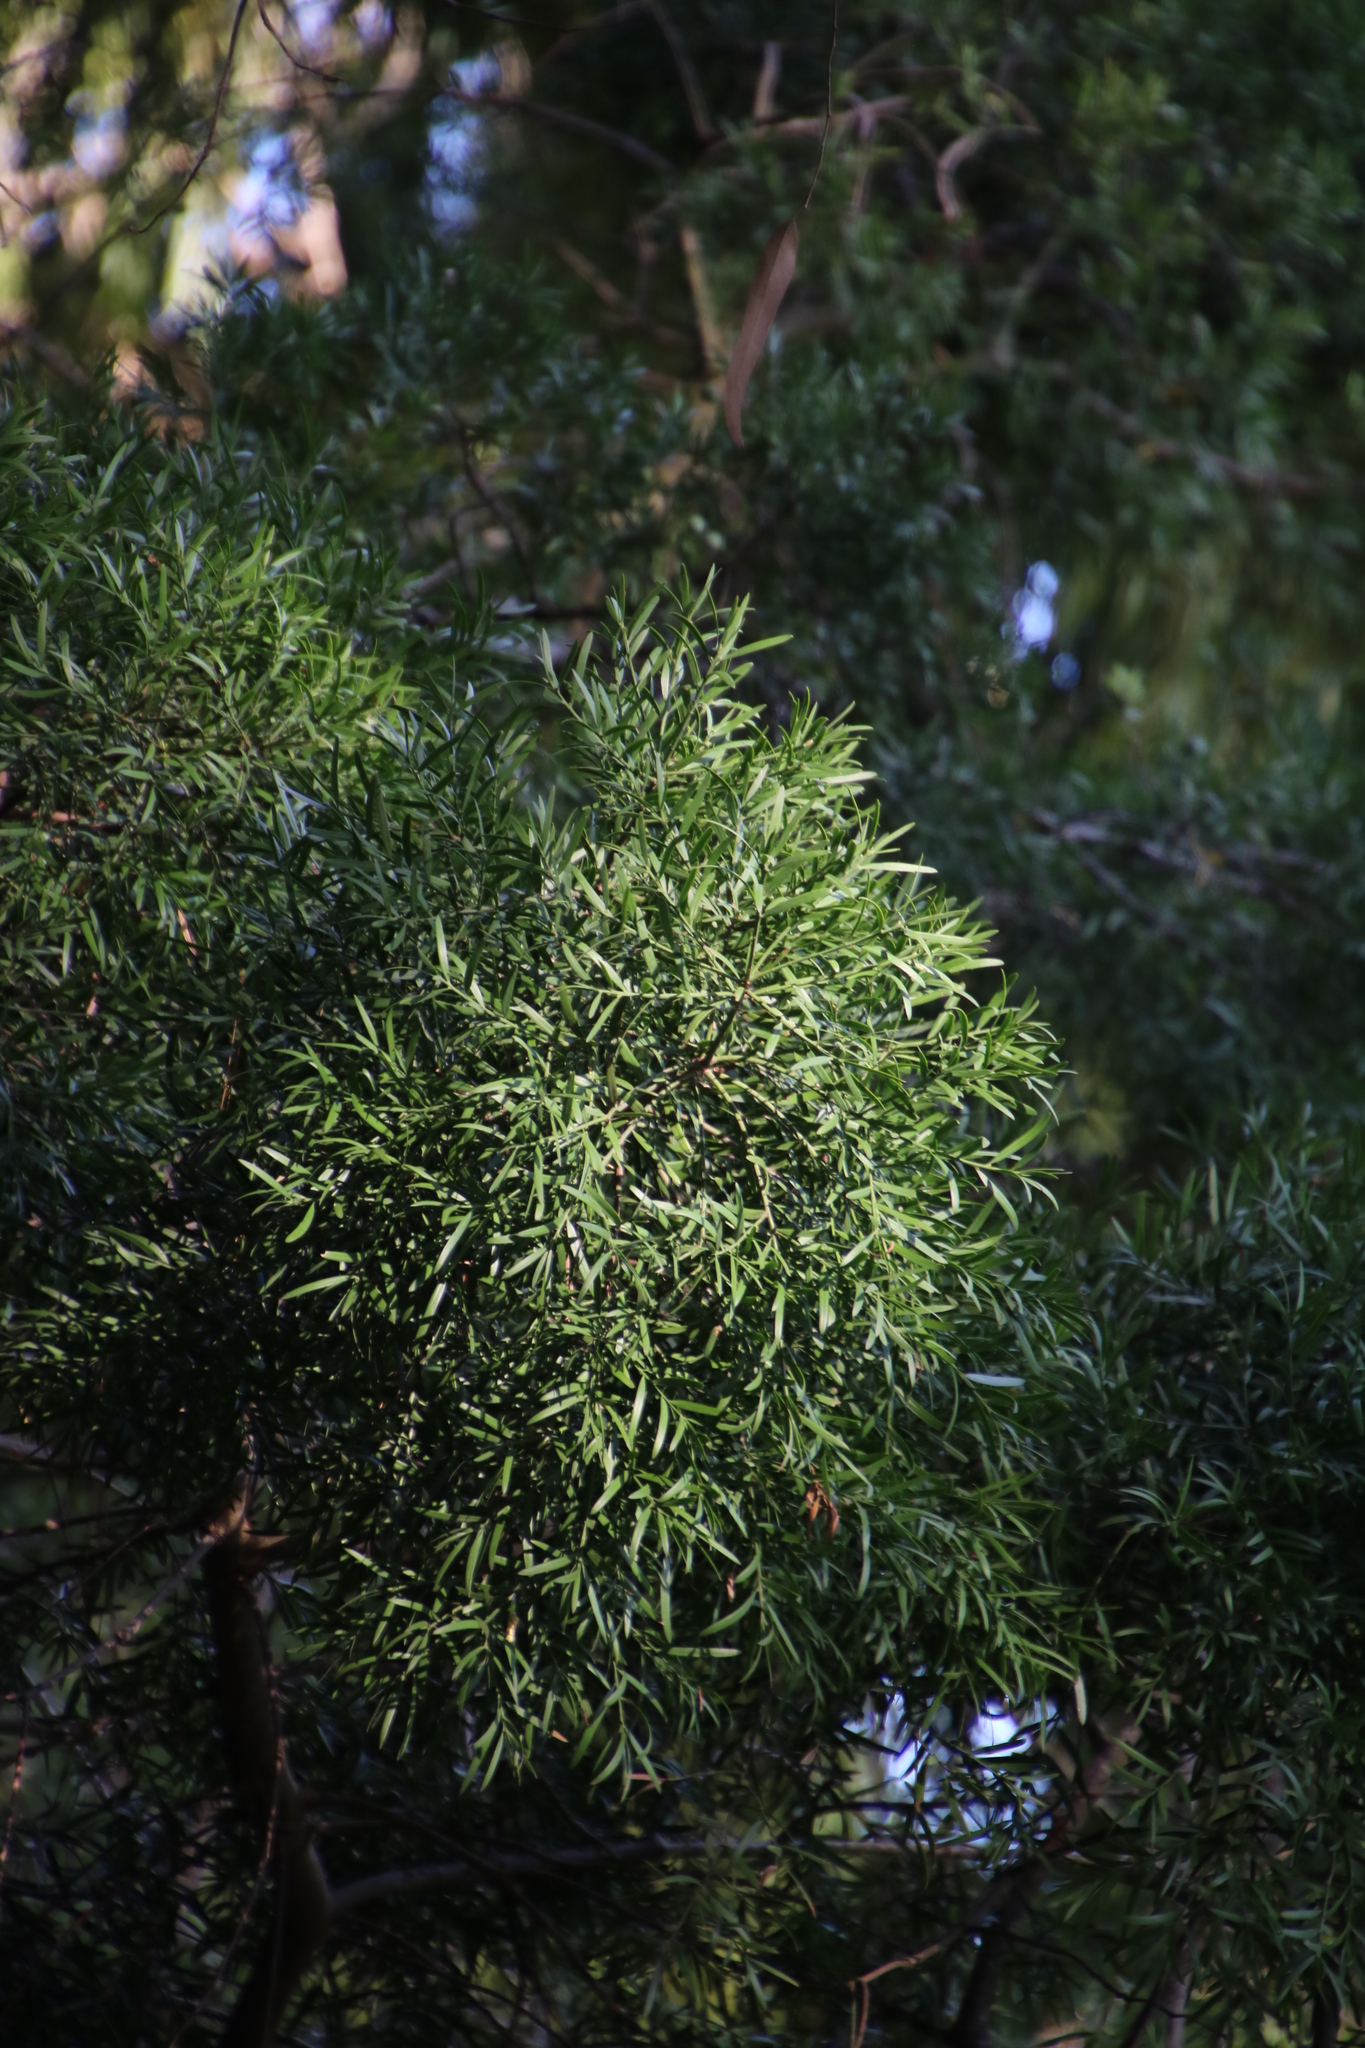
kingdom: Plantae
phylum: Tracheophyta
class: Pinopsida
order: Pinales
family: Podocarpaceae
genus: Afrocarpus
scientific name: Afrocarpus falcatus
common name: Bastard yellowwood
